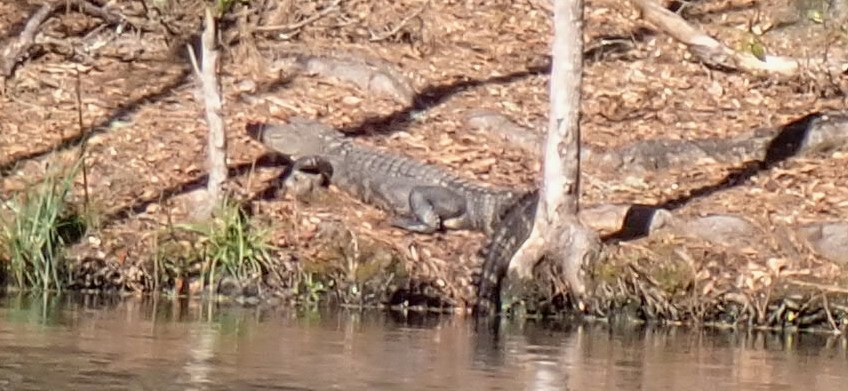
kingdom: Animalia
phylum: Chordata
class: Crocodylia
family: Alligatoridae
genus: Alligator
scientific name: Alligator mississippiensis
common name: American alligator
